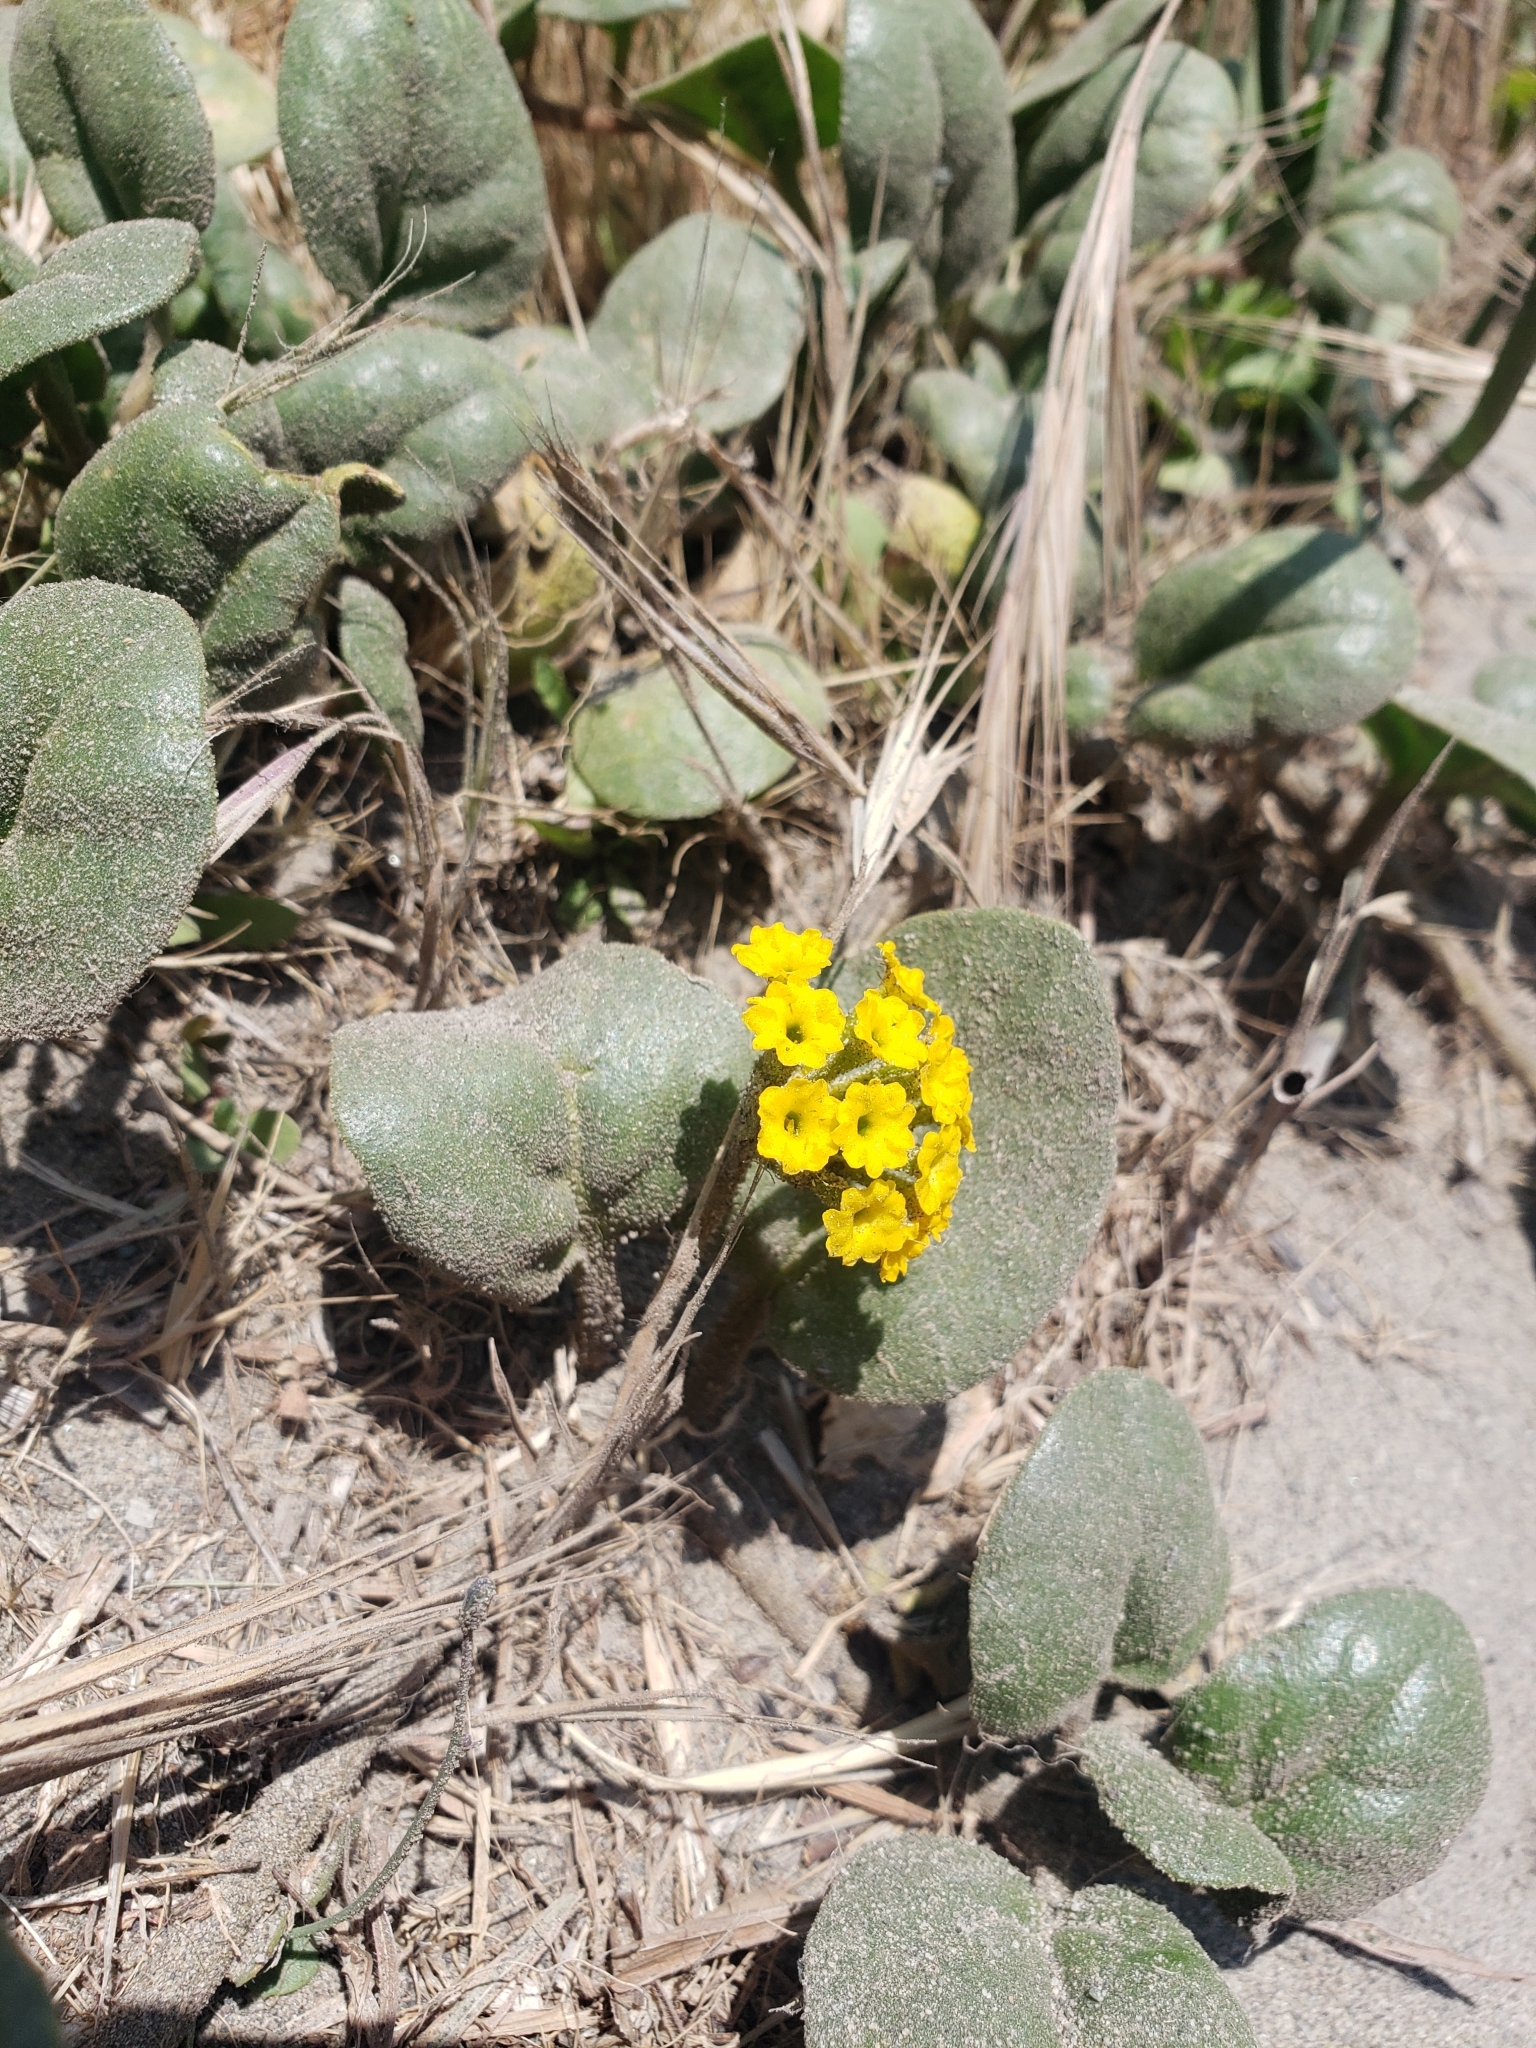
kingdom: Plantae
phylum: Tracheophyta
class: Magnoliopsida
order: Caryophyllales
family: Nyctaginaceae
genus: Abronia
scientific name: Abronia latifolia
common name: Yellow sand-verbena
